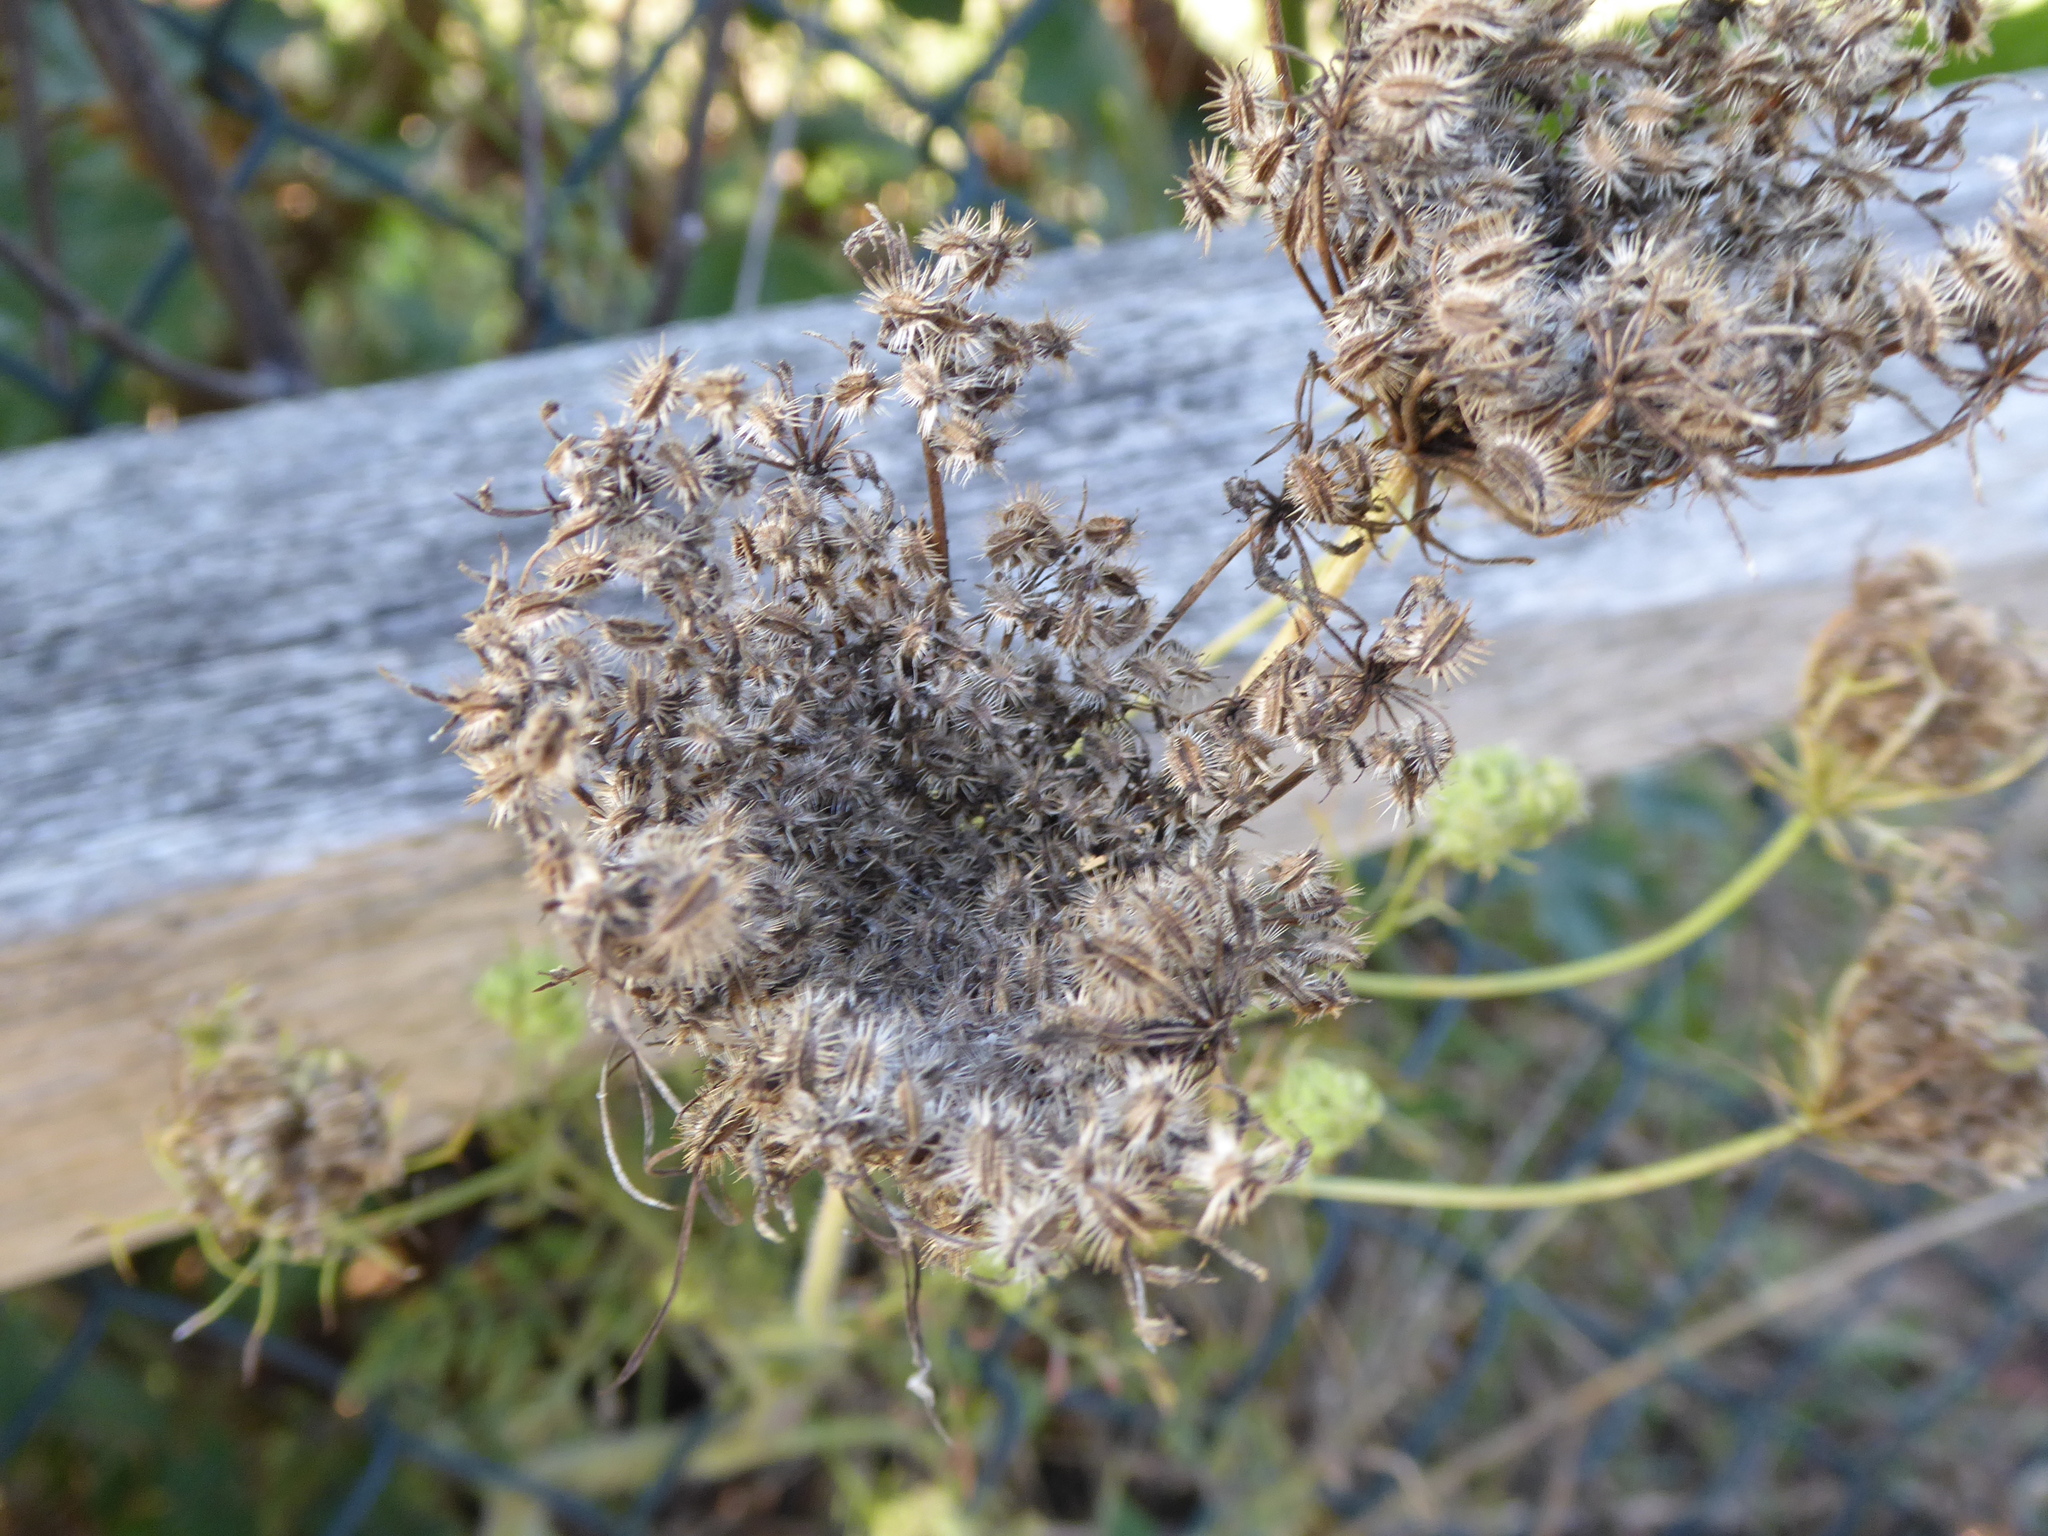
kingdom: Plantae
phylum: Tracheophyta
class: Magnoliopsida
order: Apiales
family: Apiaceae
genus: Daucus
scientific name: Daucus carota
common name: Wild carrot
